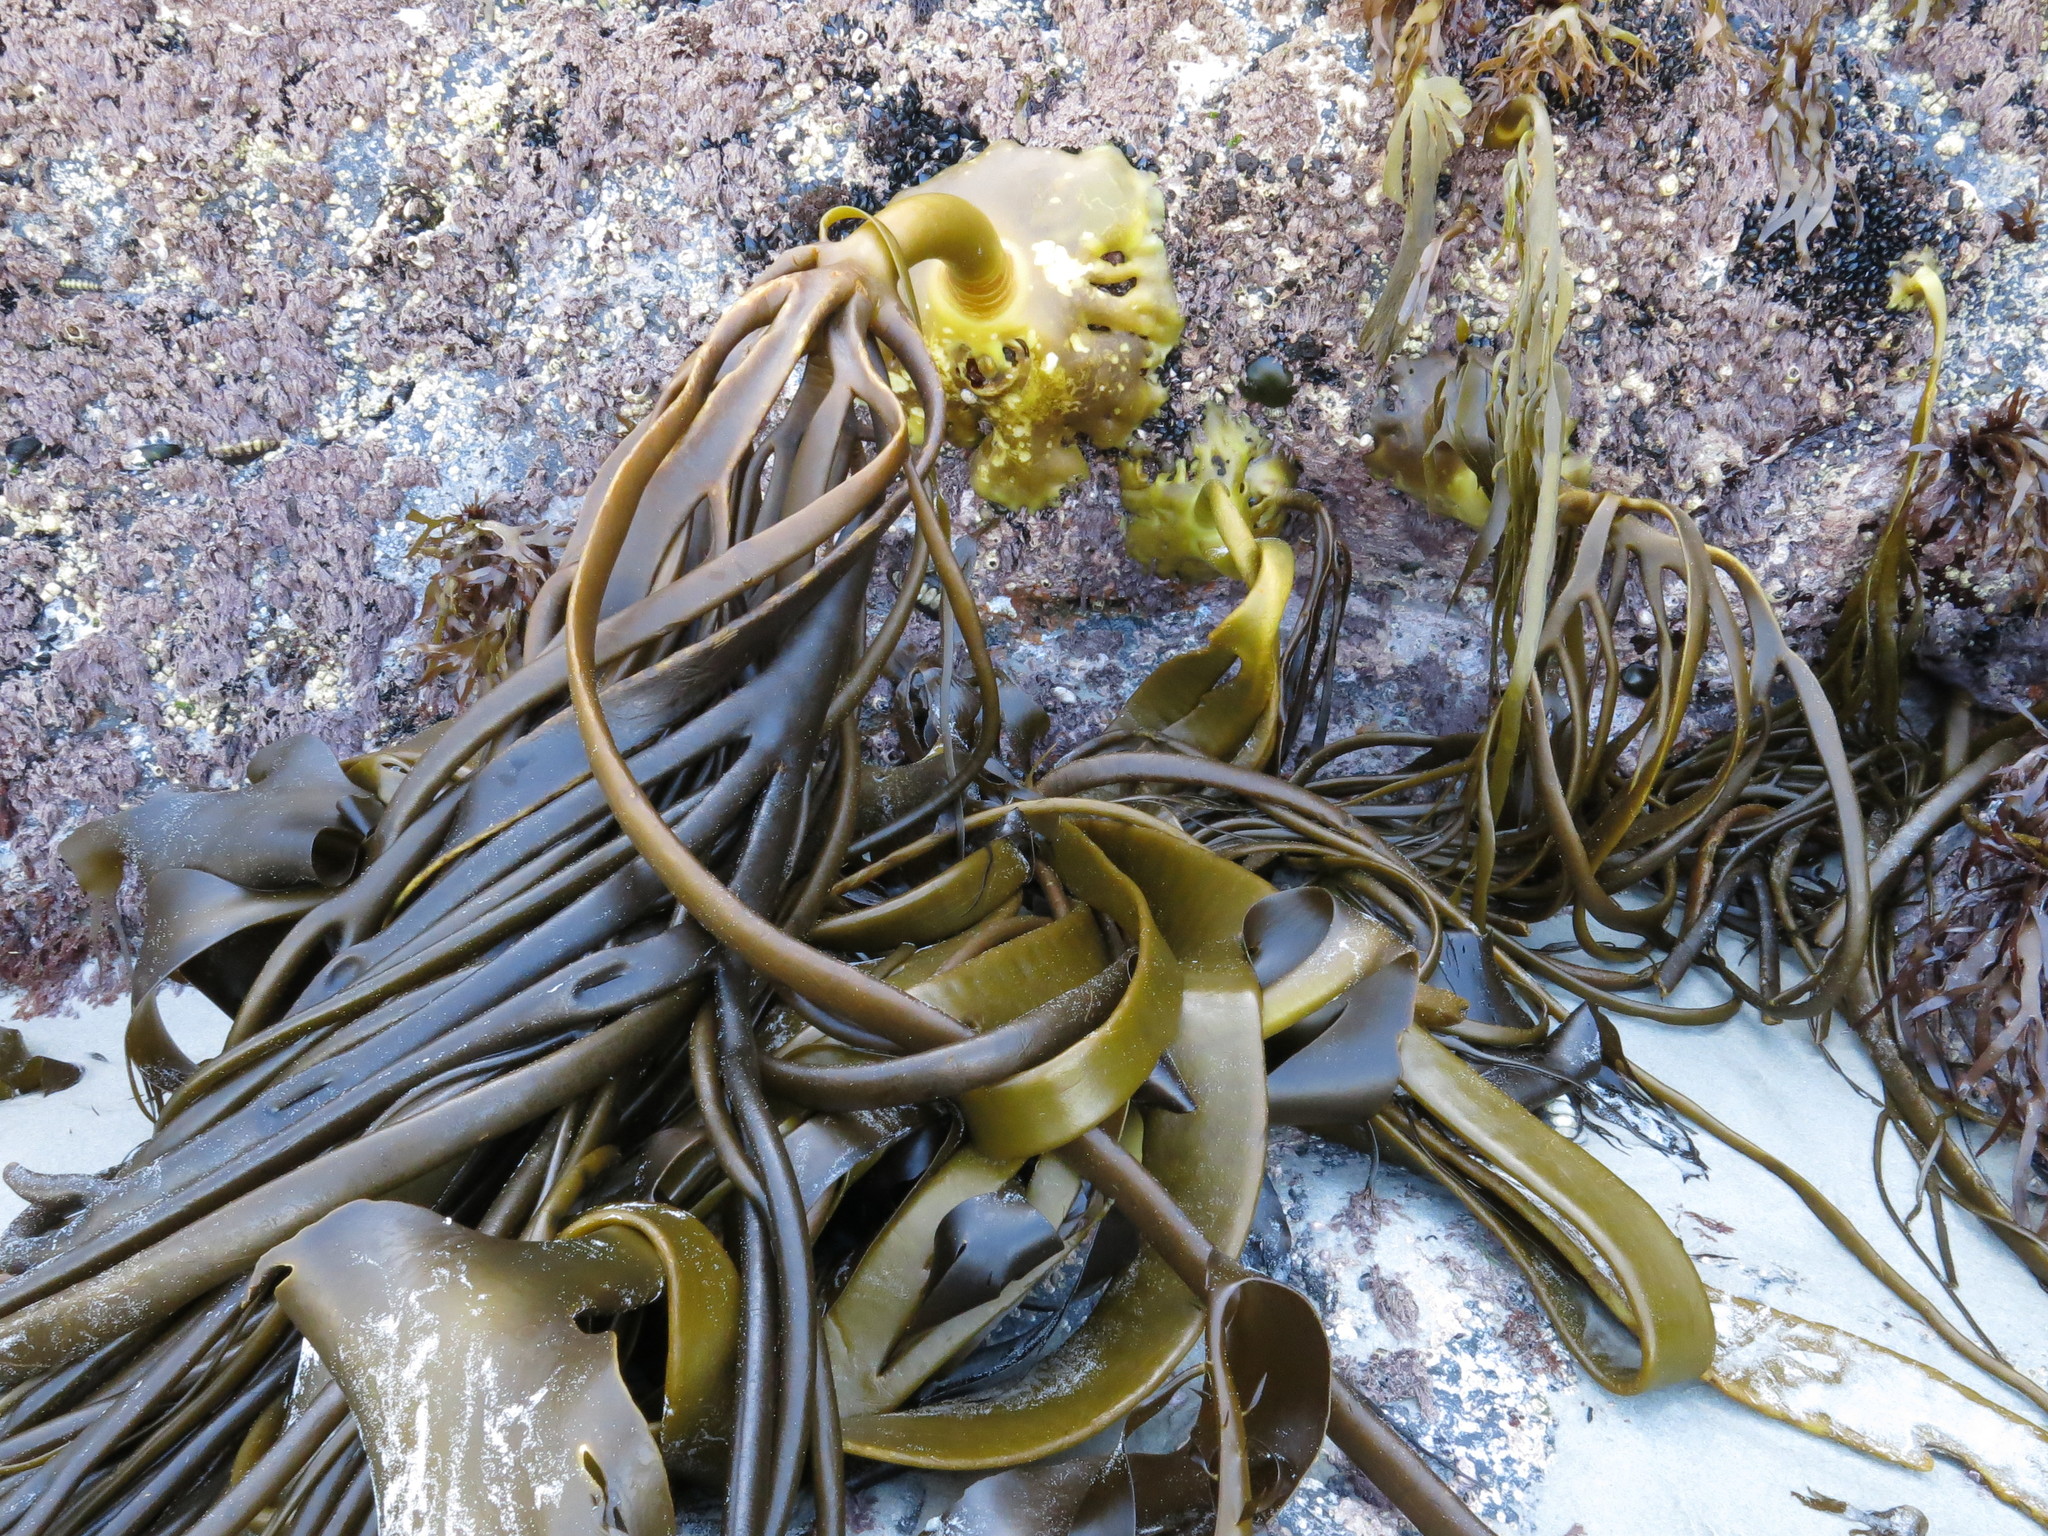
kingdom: Chromista
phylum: Ochrophyta
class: Phaeophyceae
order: Fucales
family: Durvillaeaceae
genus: Durvillaea
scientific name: Durvillaea antarctica
